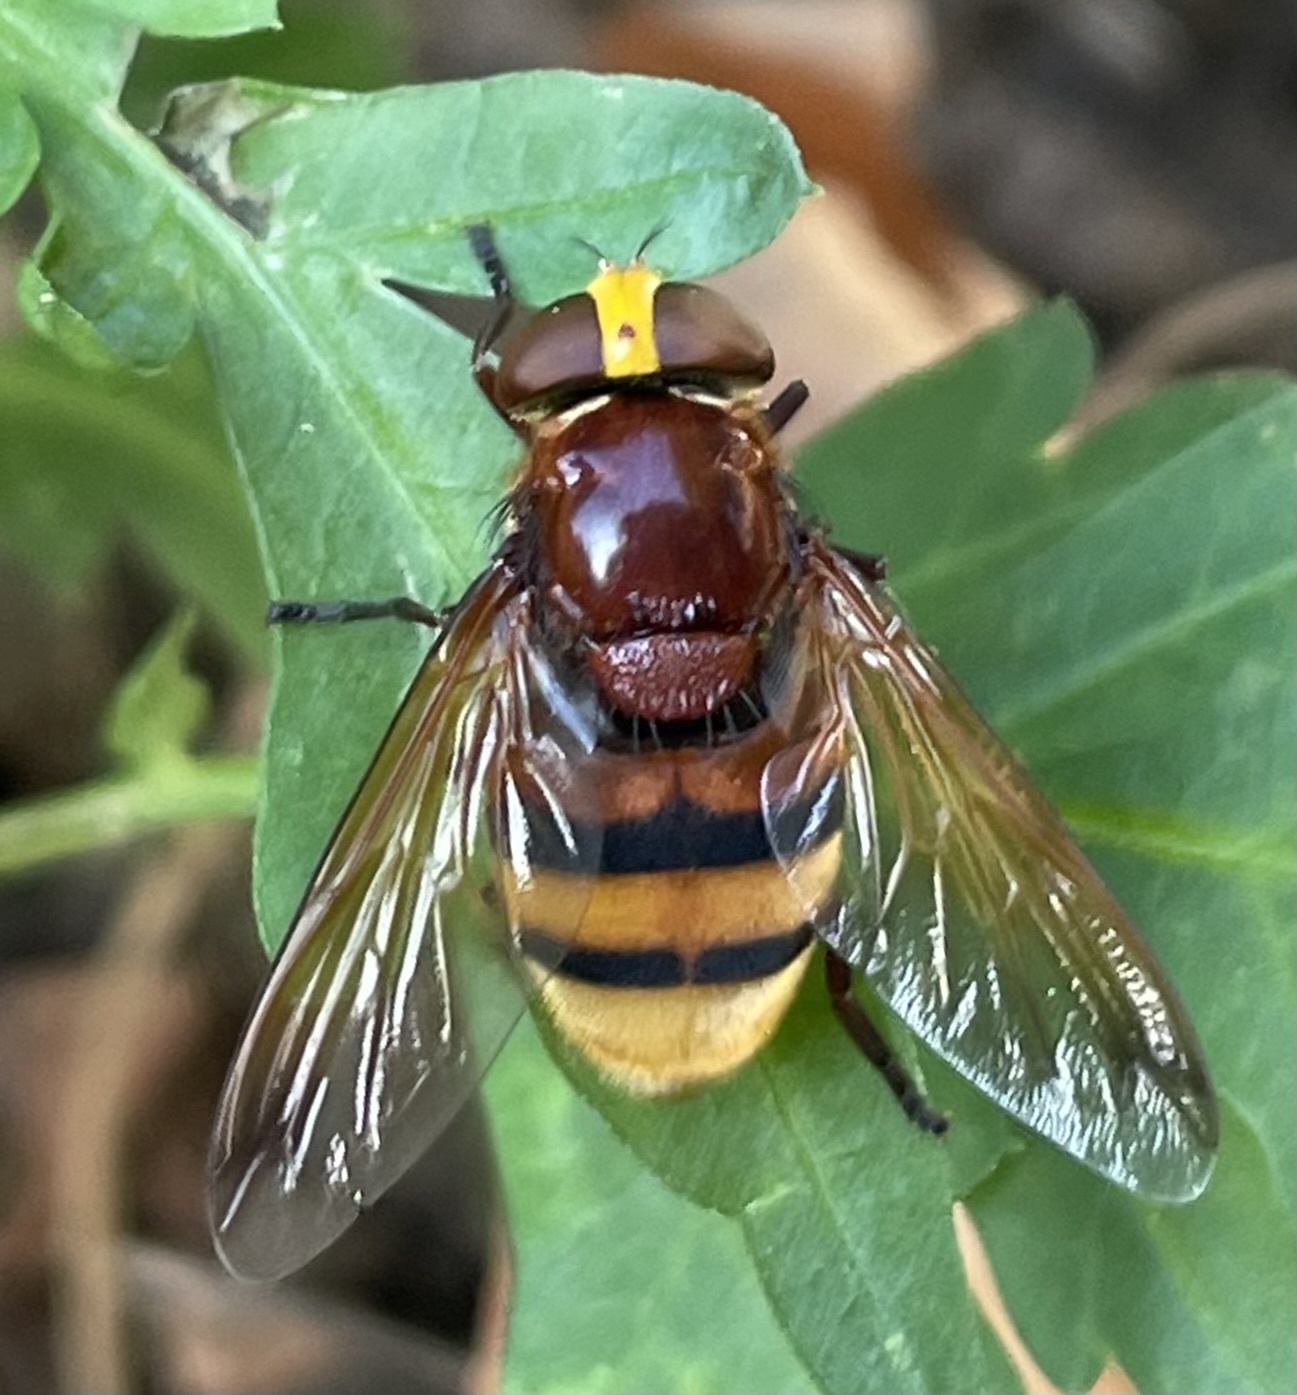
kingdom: Animalia
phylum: Arthropoda
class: Insecta
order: Diptera
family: Syrphidae
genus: Volucella
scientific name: Volucella zonaria
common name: Hornet hoverfly
